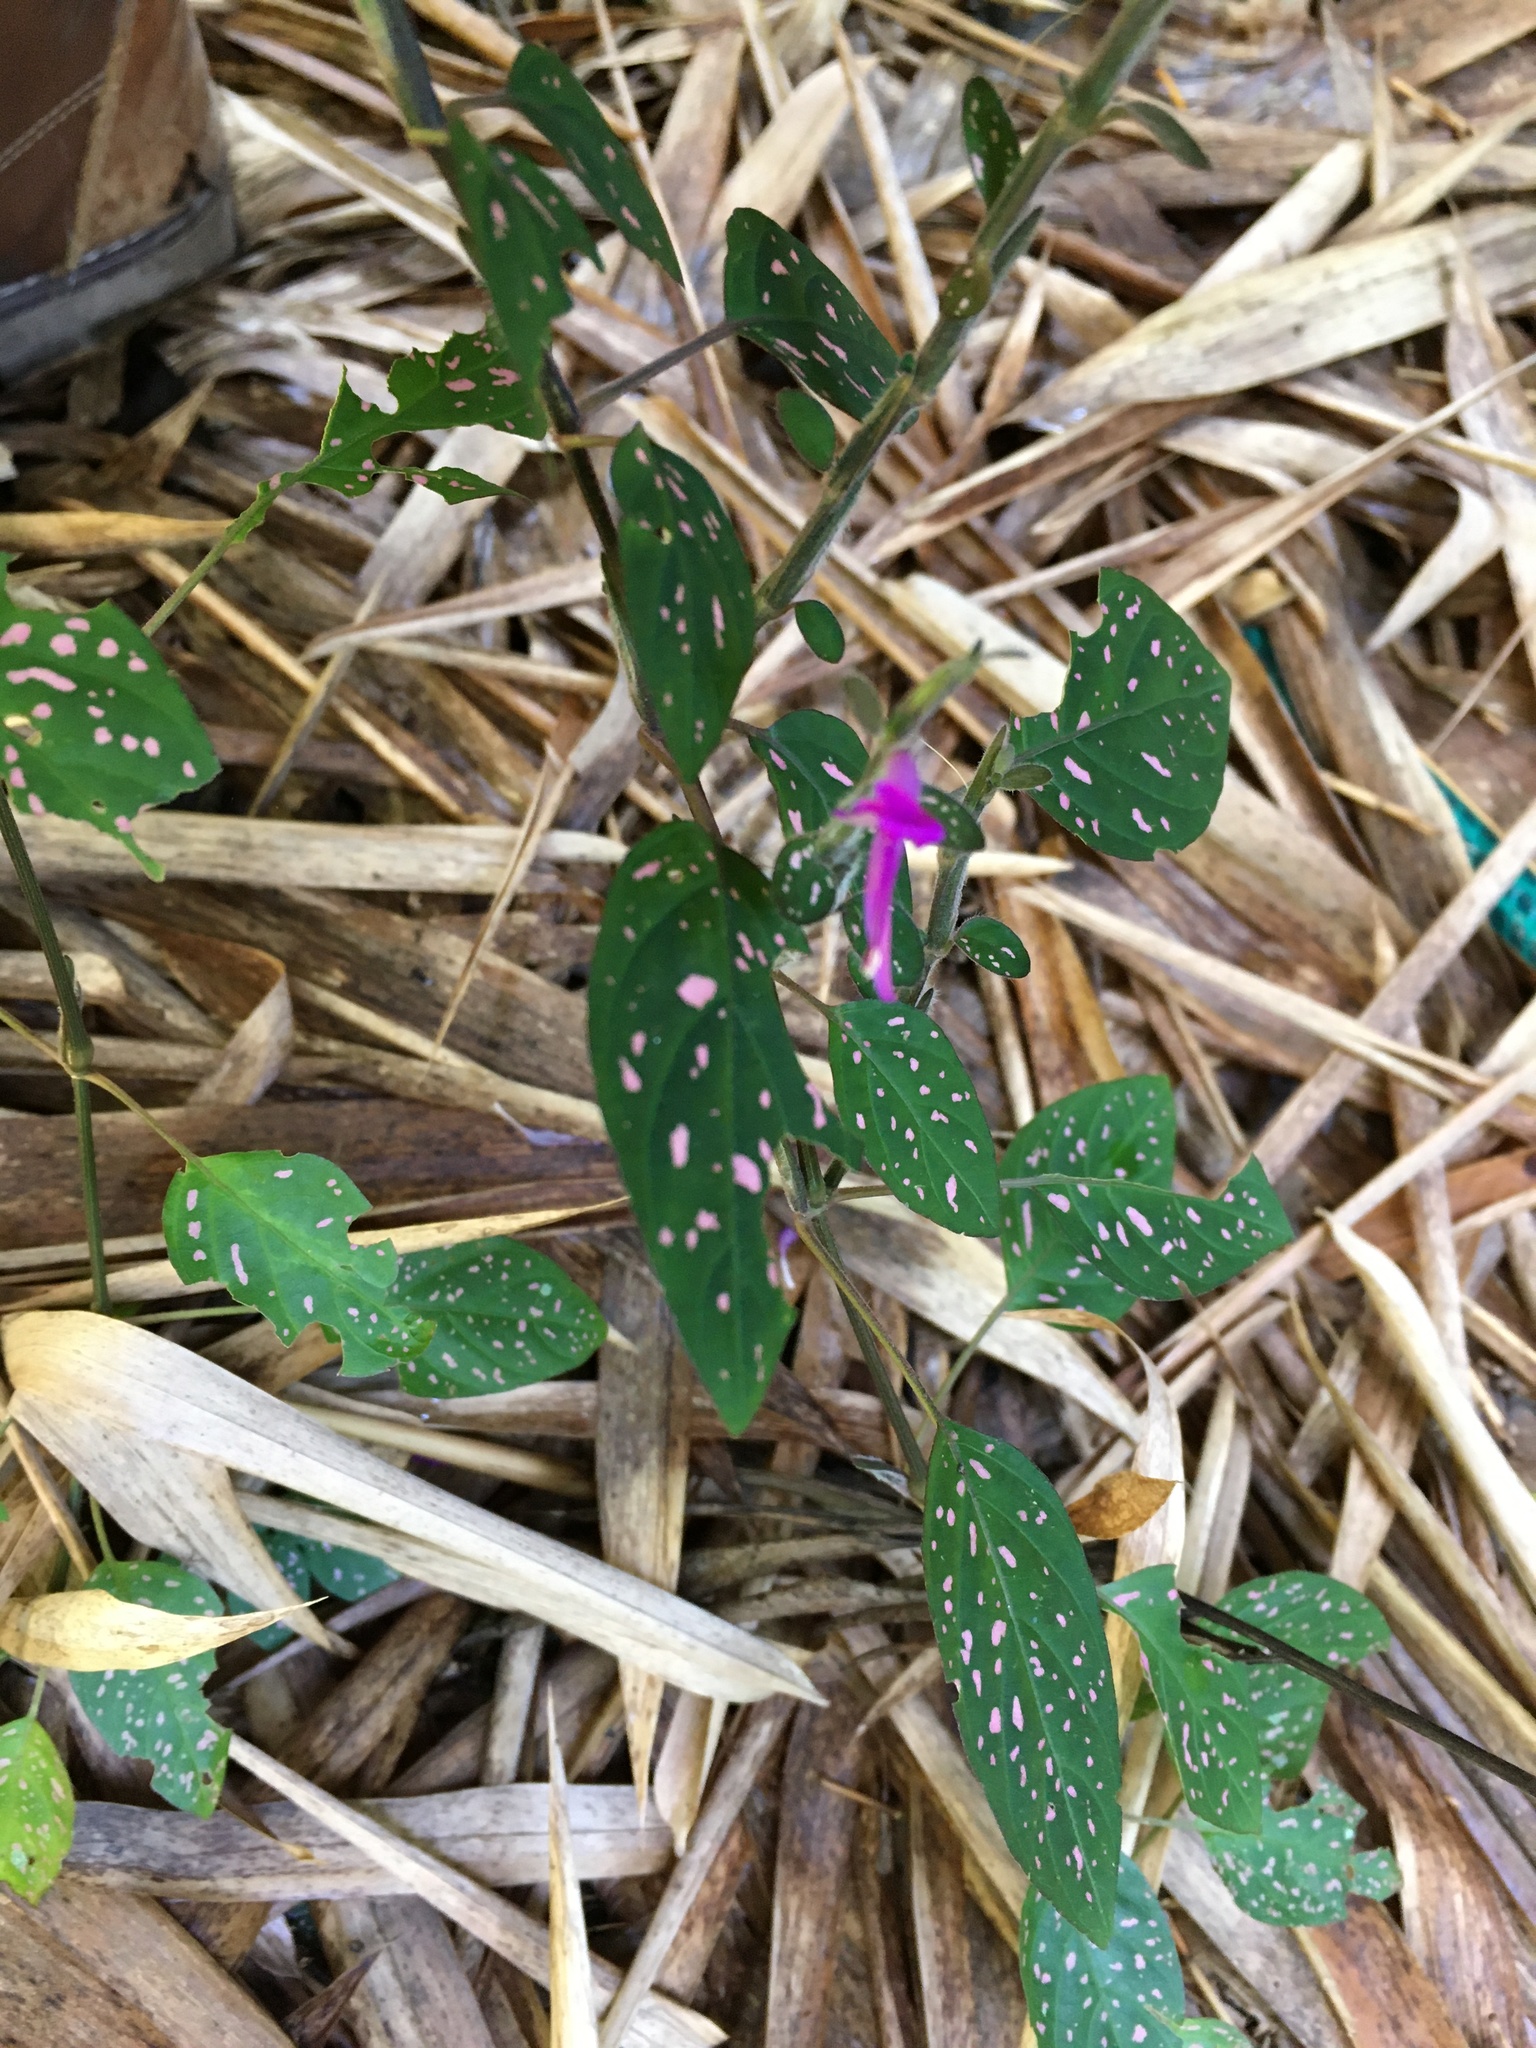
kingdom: Plantae
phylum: Tracheophyta
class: Magnoliopsida
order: Lamiales
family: Acanthaceae
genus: Hypoestes
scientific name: Hypoestes phyllostachya
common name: Polkadot-plant
